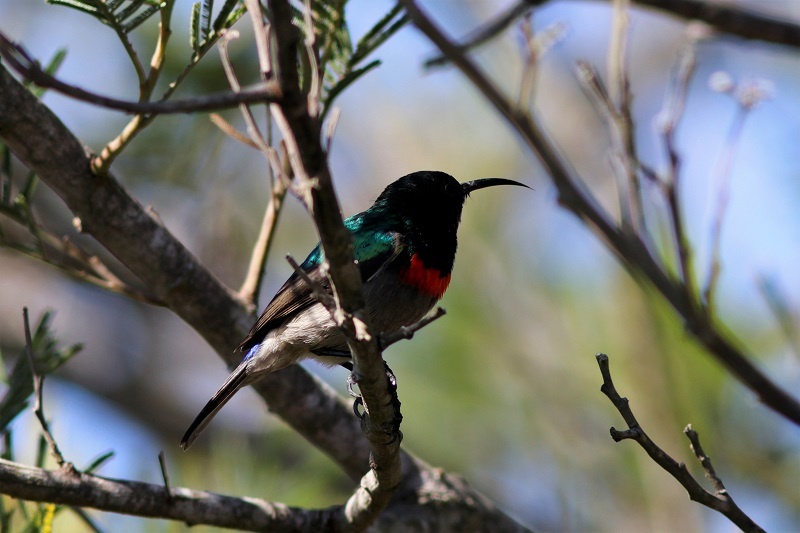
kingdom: Animalia
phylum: Chordata
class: Aves
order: Passeriformes
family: Nectariniidae
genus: Cinnyris
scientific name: Cinnyris chalybeus
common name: Southern double-collared sunbird
